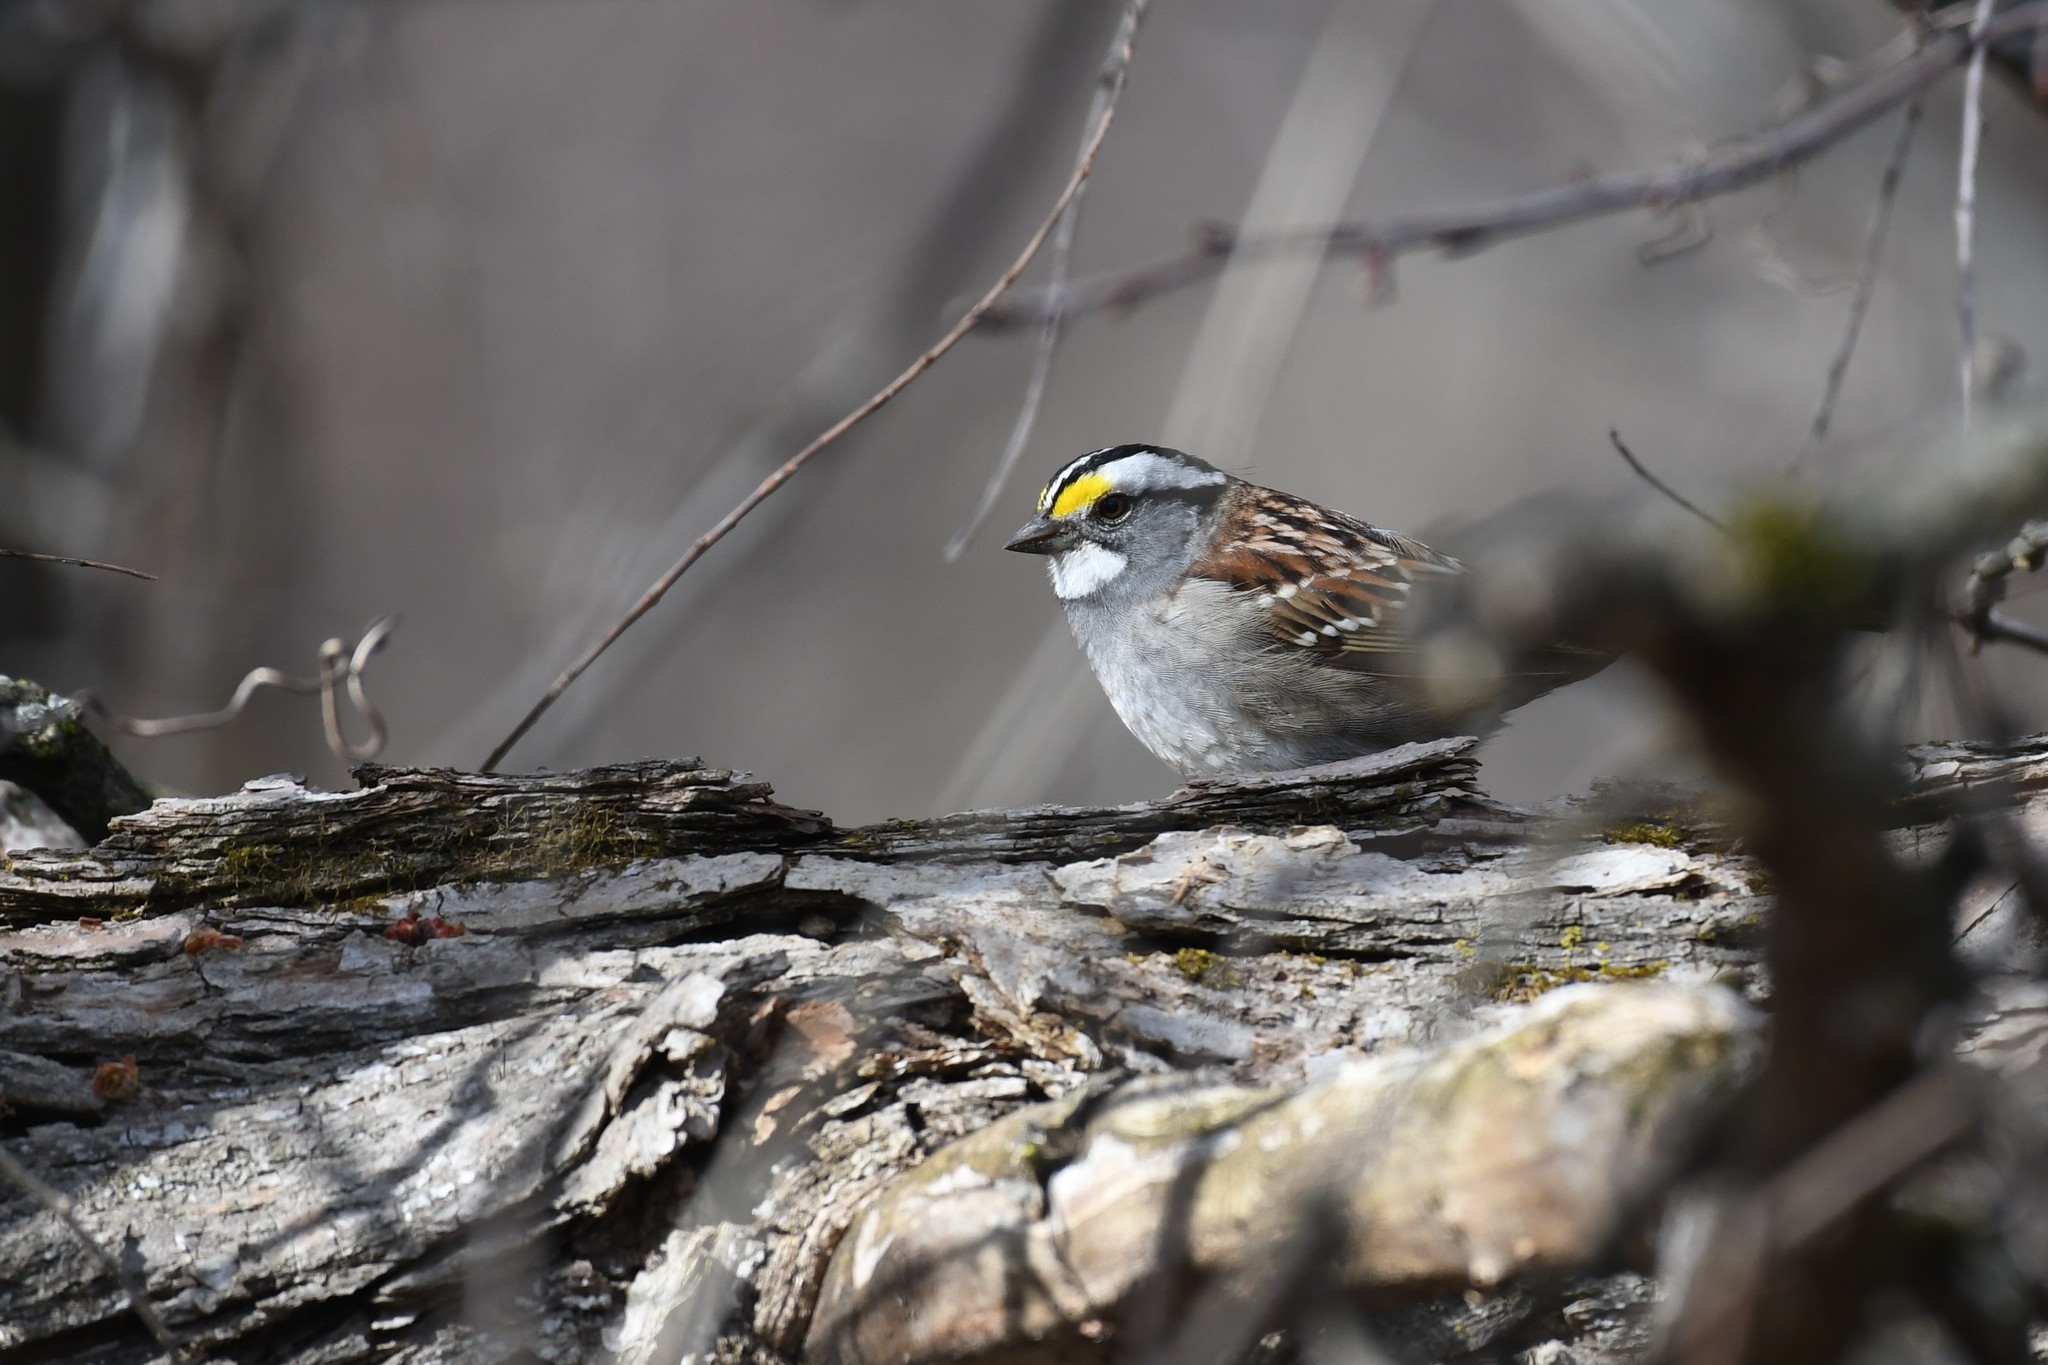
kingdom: Animalia
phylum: Chordata
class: Aves
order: Passeriformes
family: Passerellidae
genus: Zonotrichia
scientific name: Zonotrichia albicollis
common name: White-throated sparrow
